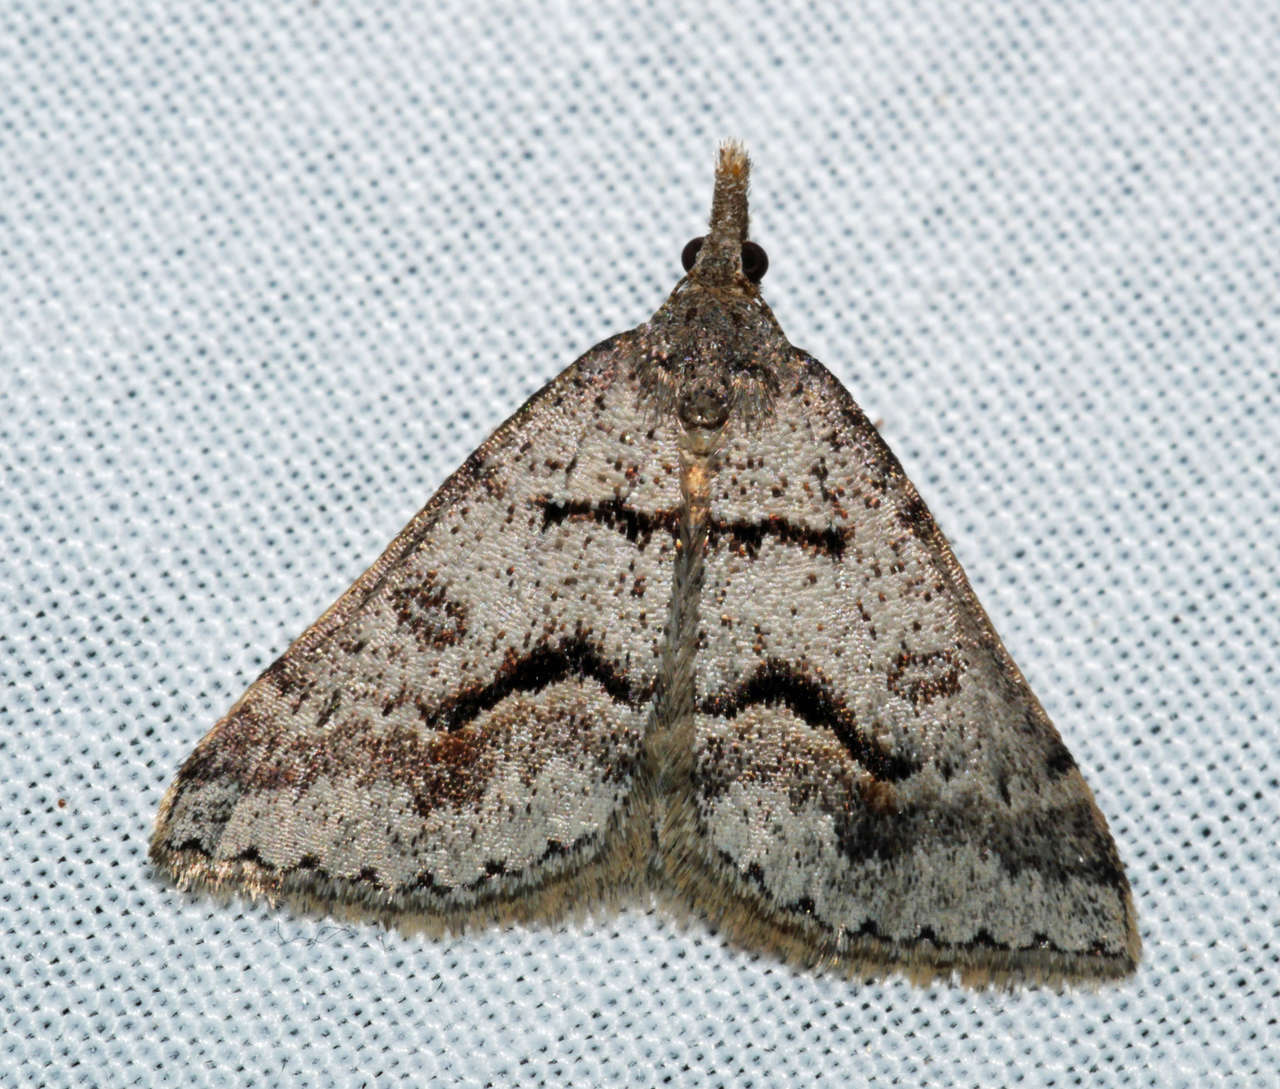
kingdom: Animalia
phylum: Arthropoda
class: Insecta
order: Lepidoptera
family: Geometridae
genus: Dichromodes
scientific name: Dichromodes mesogonia
